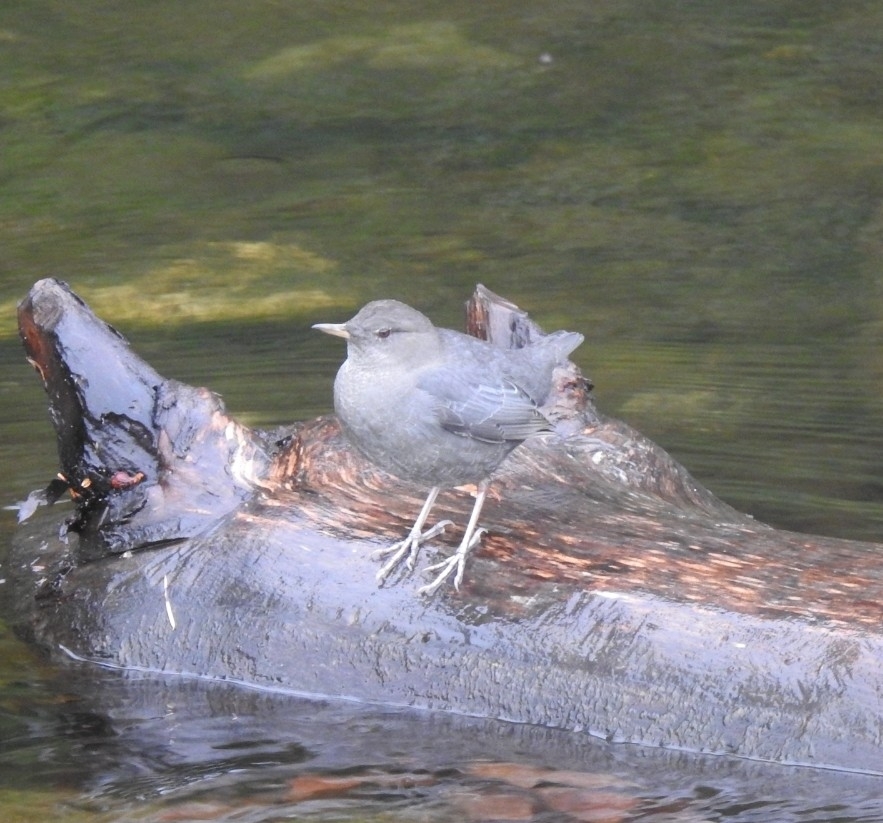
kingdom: Animalia
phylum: Chordata
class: Aves
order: Passeriformes
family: Cinclidae
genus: Cinclus
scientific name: Cinclus mexicanus
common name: American dipper
